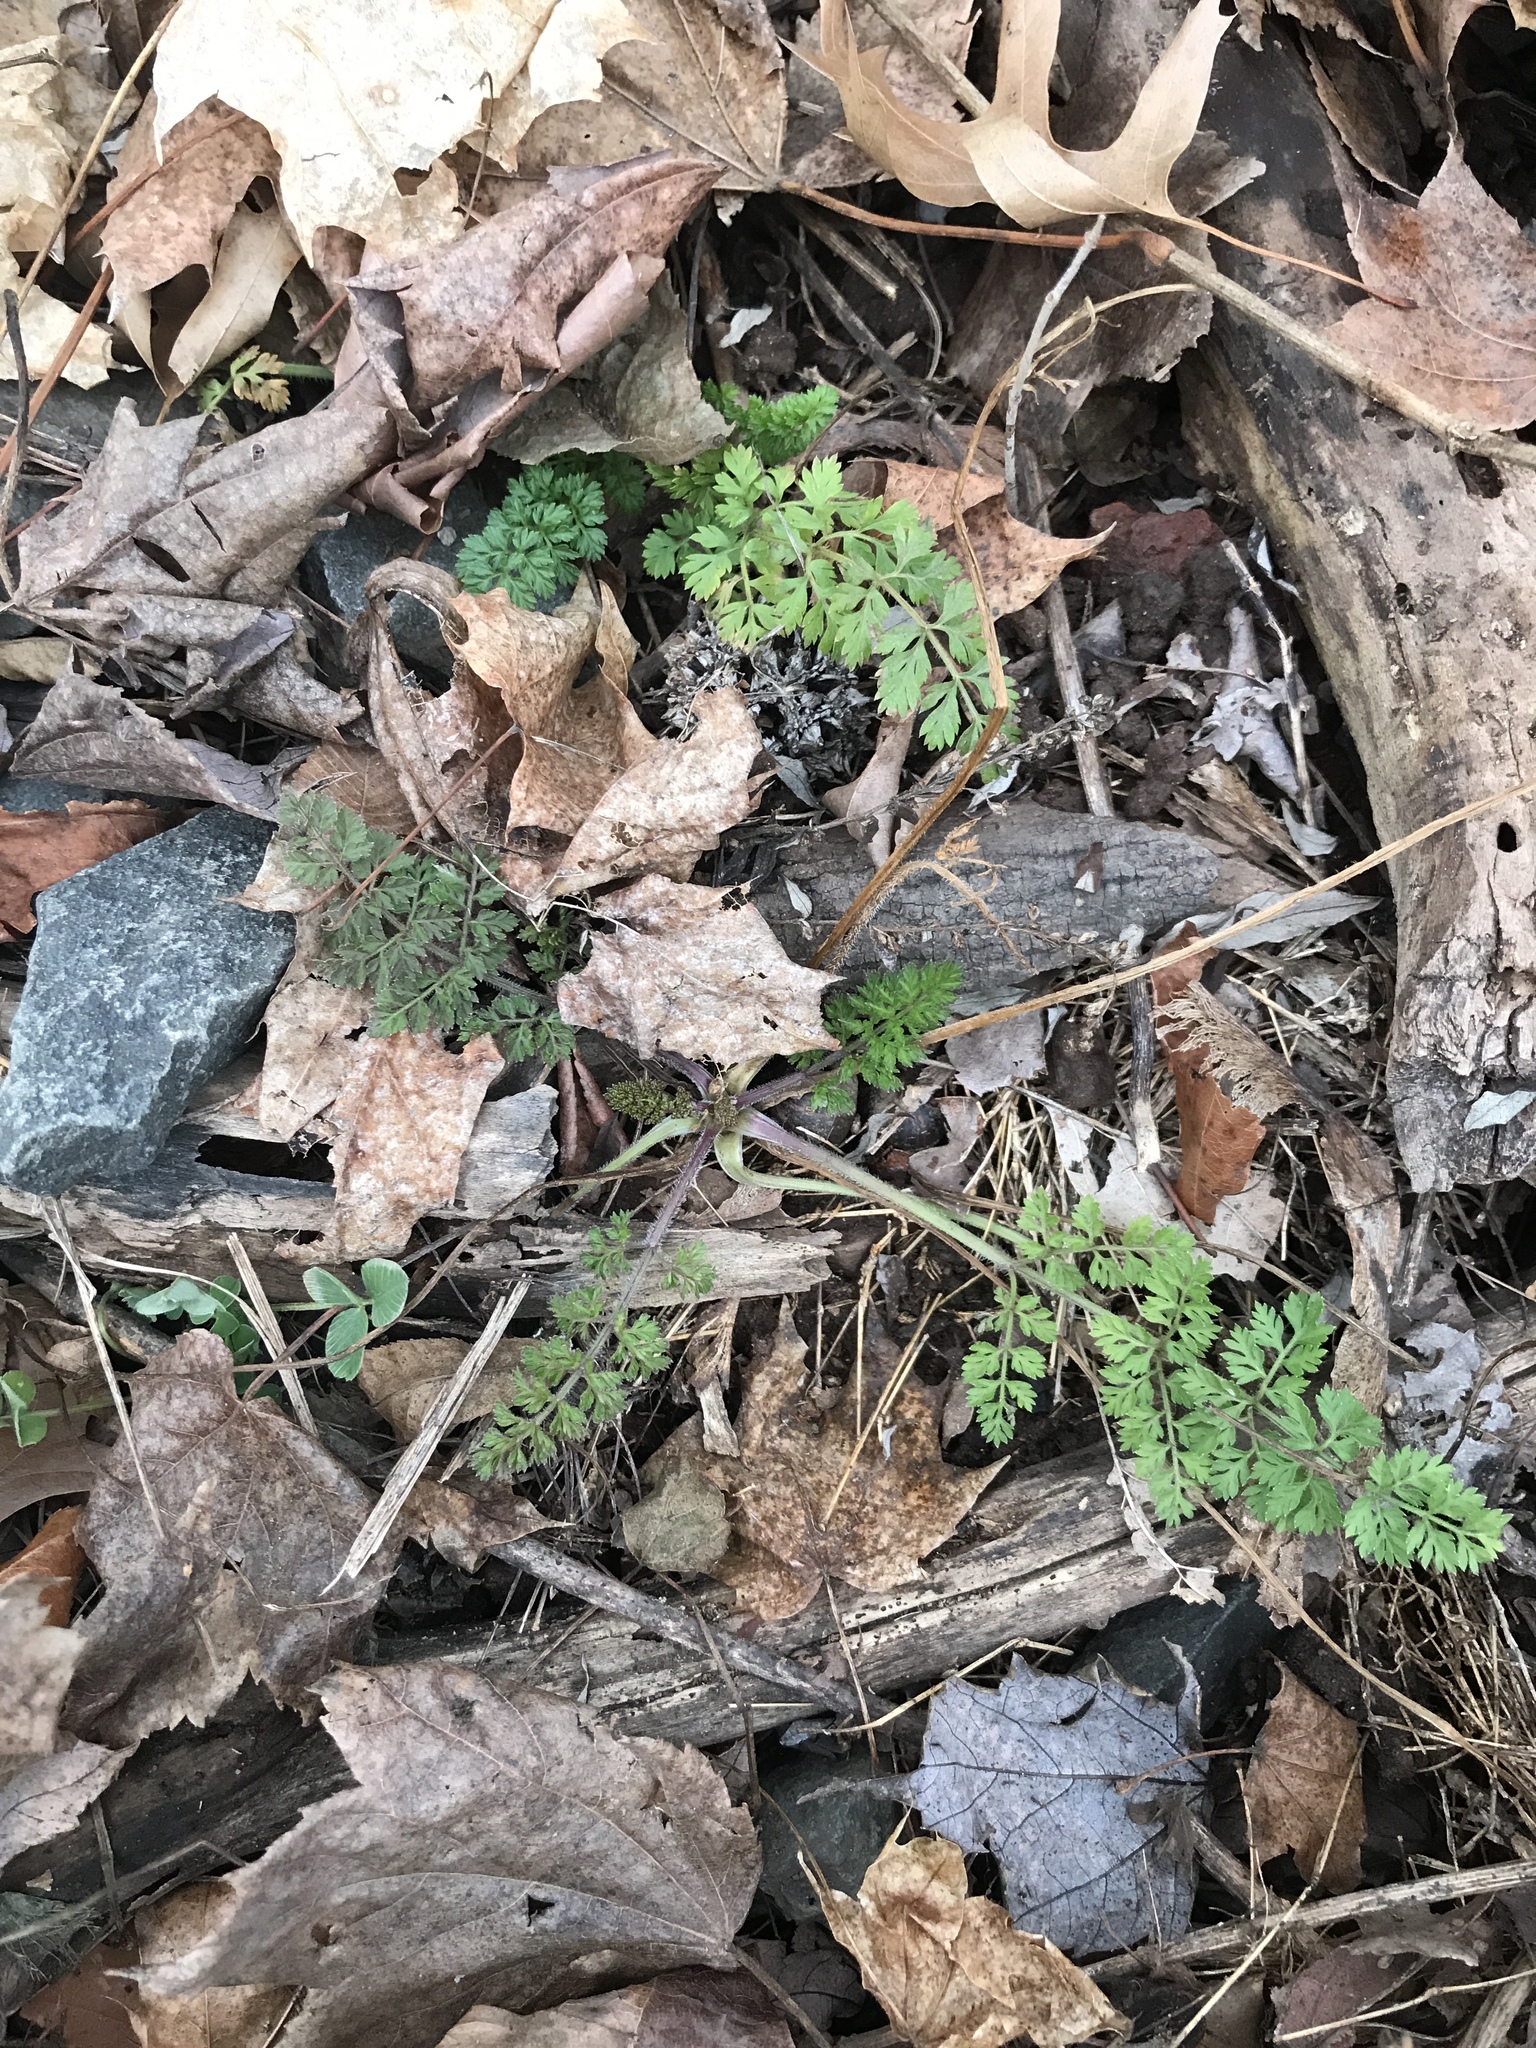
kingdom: Plantae
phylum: Tracheophyta
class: Magnoliopsida
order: Apiales
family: Apiaceae
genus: Daucus
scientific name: Daucus carota
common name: Wild carrot
